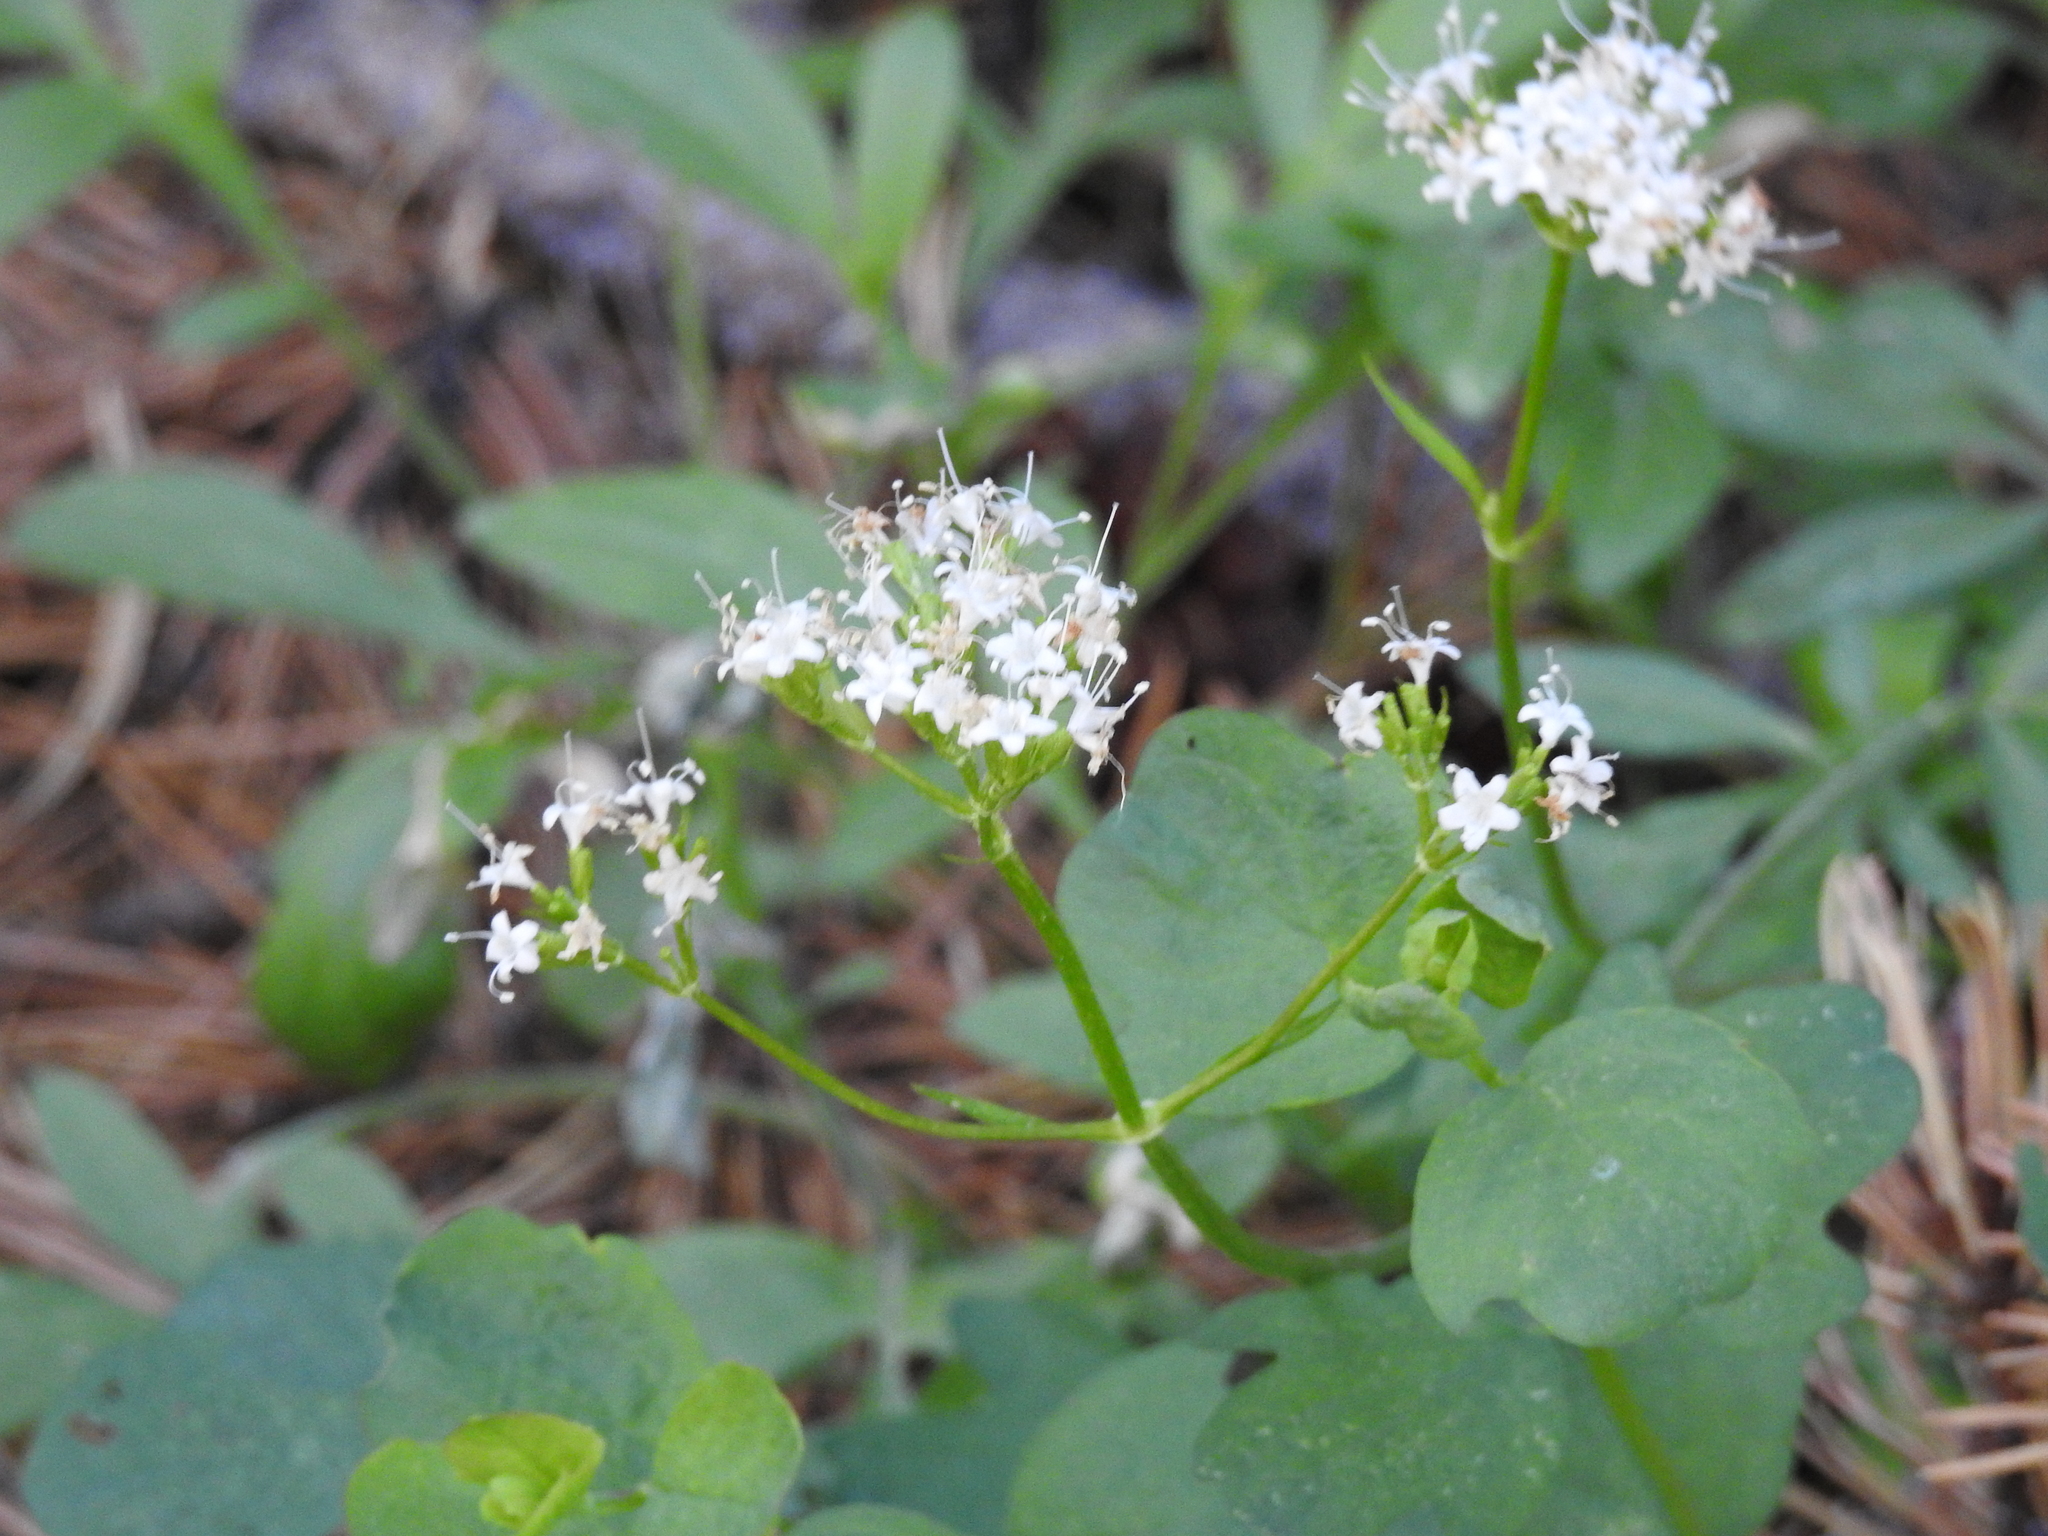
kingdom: Plantae
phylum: Tracheophyta
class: Magnoliopsida
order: Dipsacales
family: Caprifoliaceae
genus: Valeriana
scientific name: Valeriana californica
